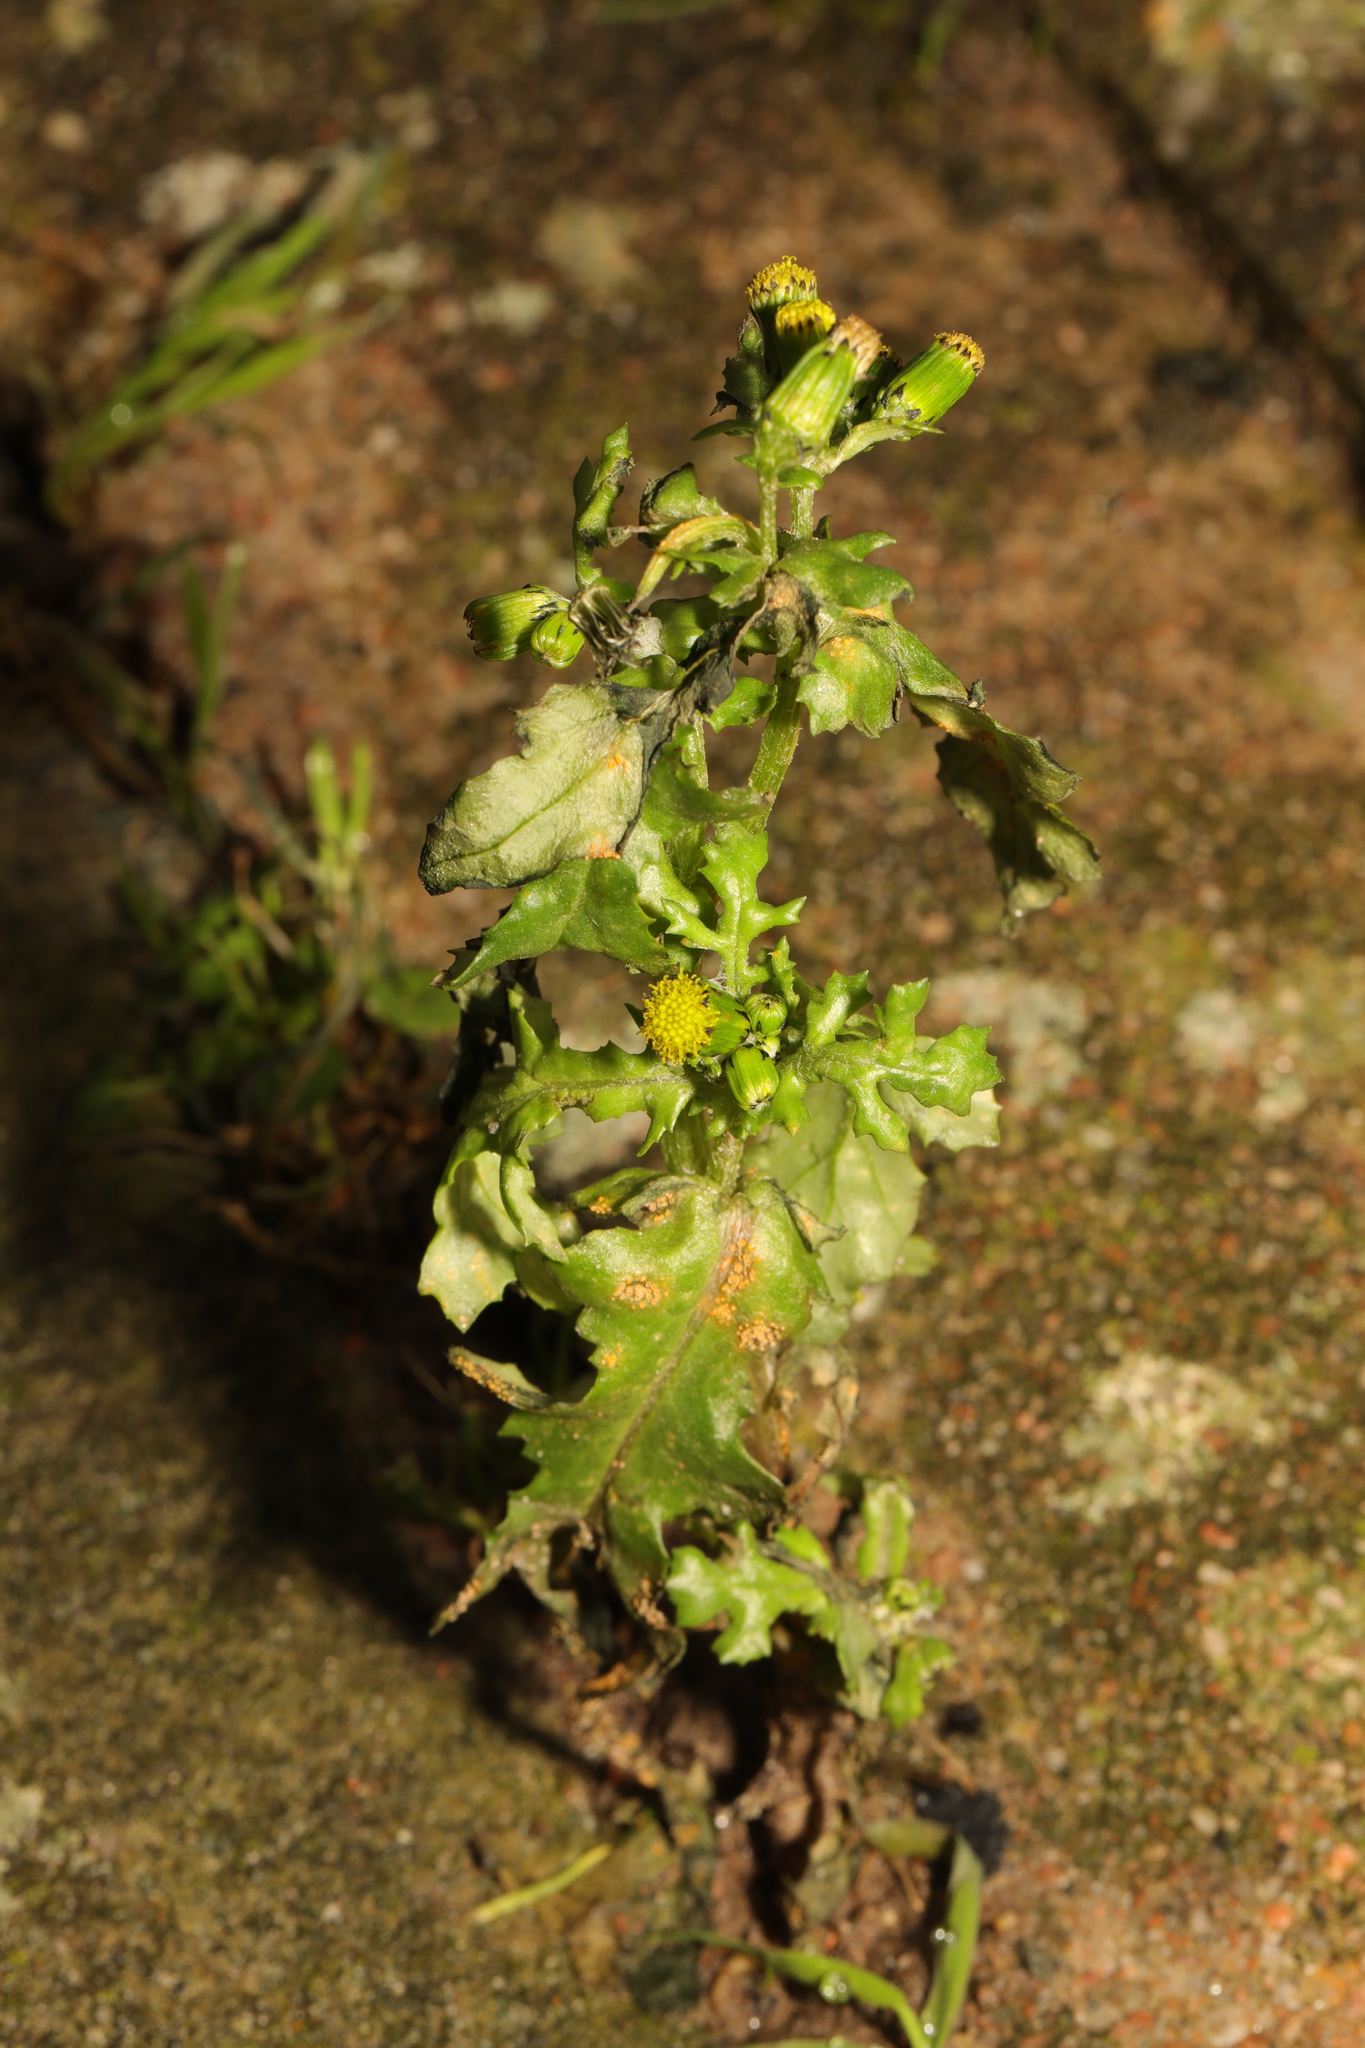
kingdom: Plantae
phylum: Tracheophyta
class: Magnoliopsida
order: Asterales
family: Asteraceae
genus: Senecio
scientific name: Senecio vulgaris
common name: Old-man-in-the-spring
